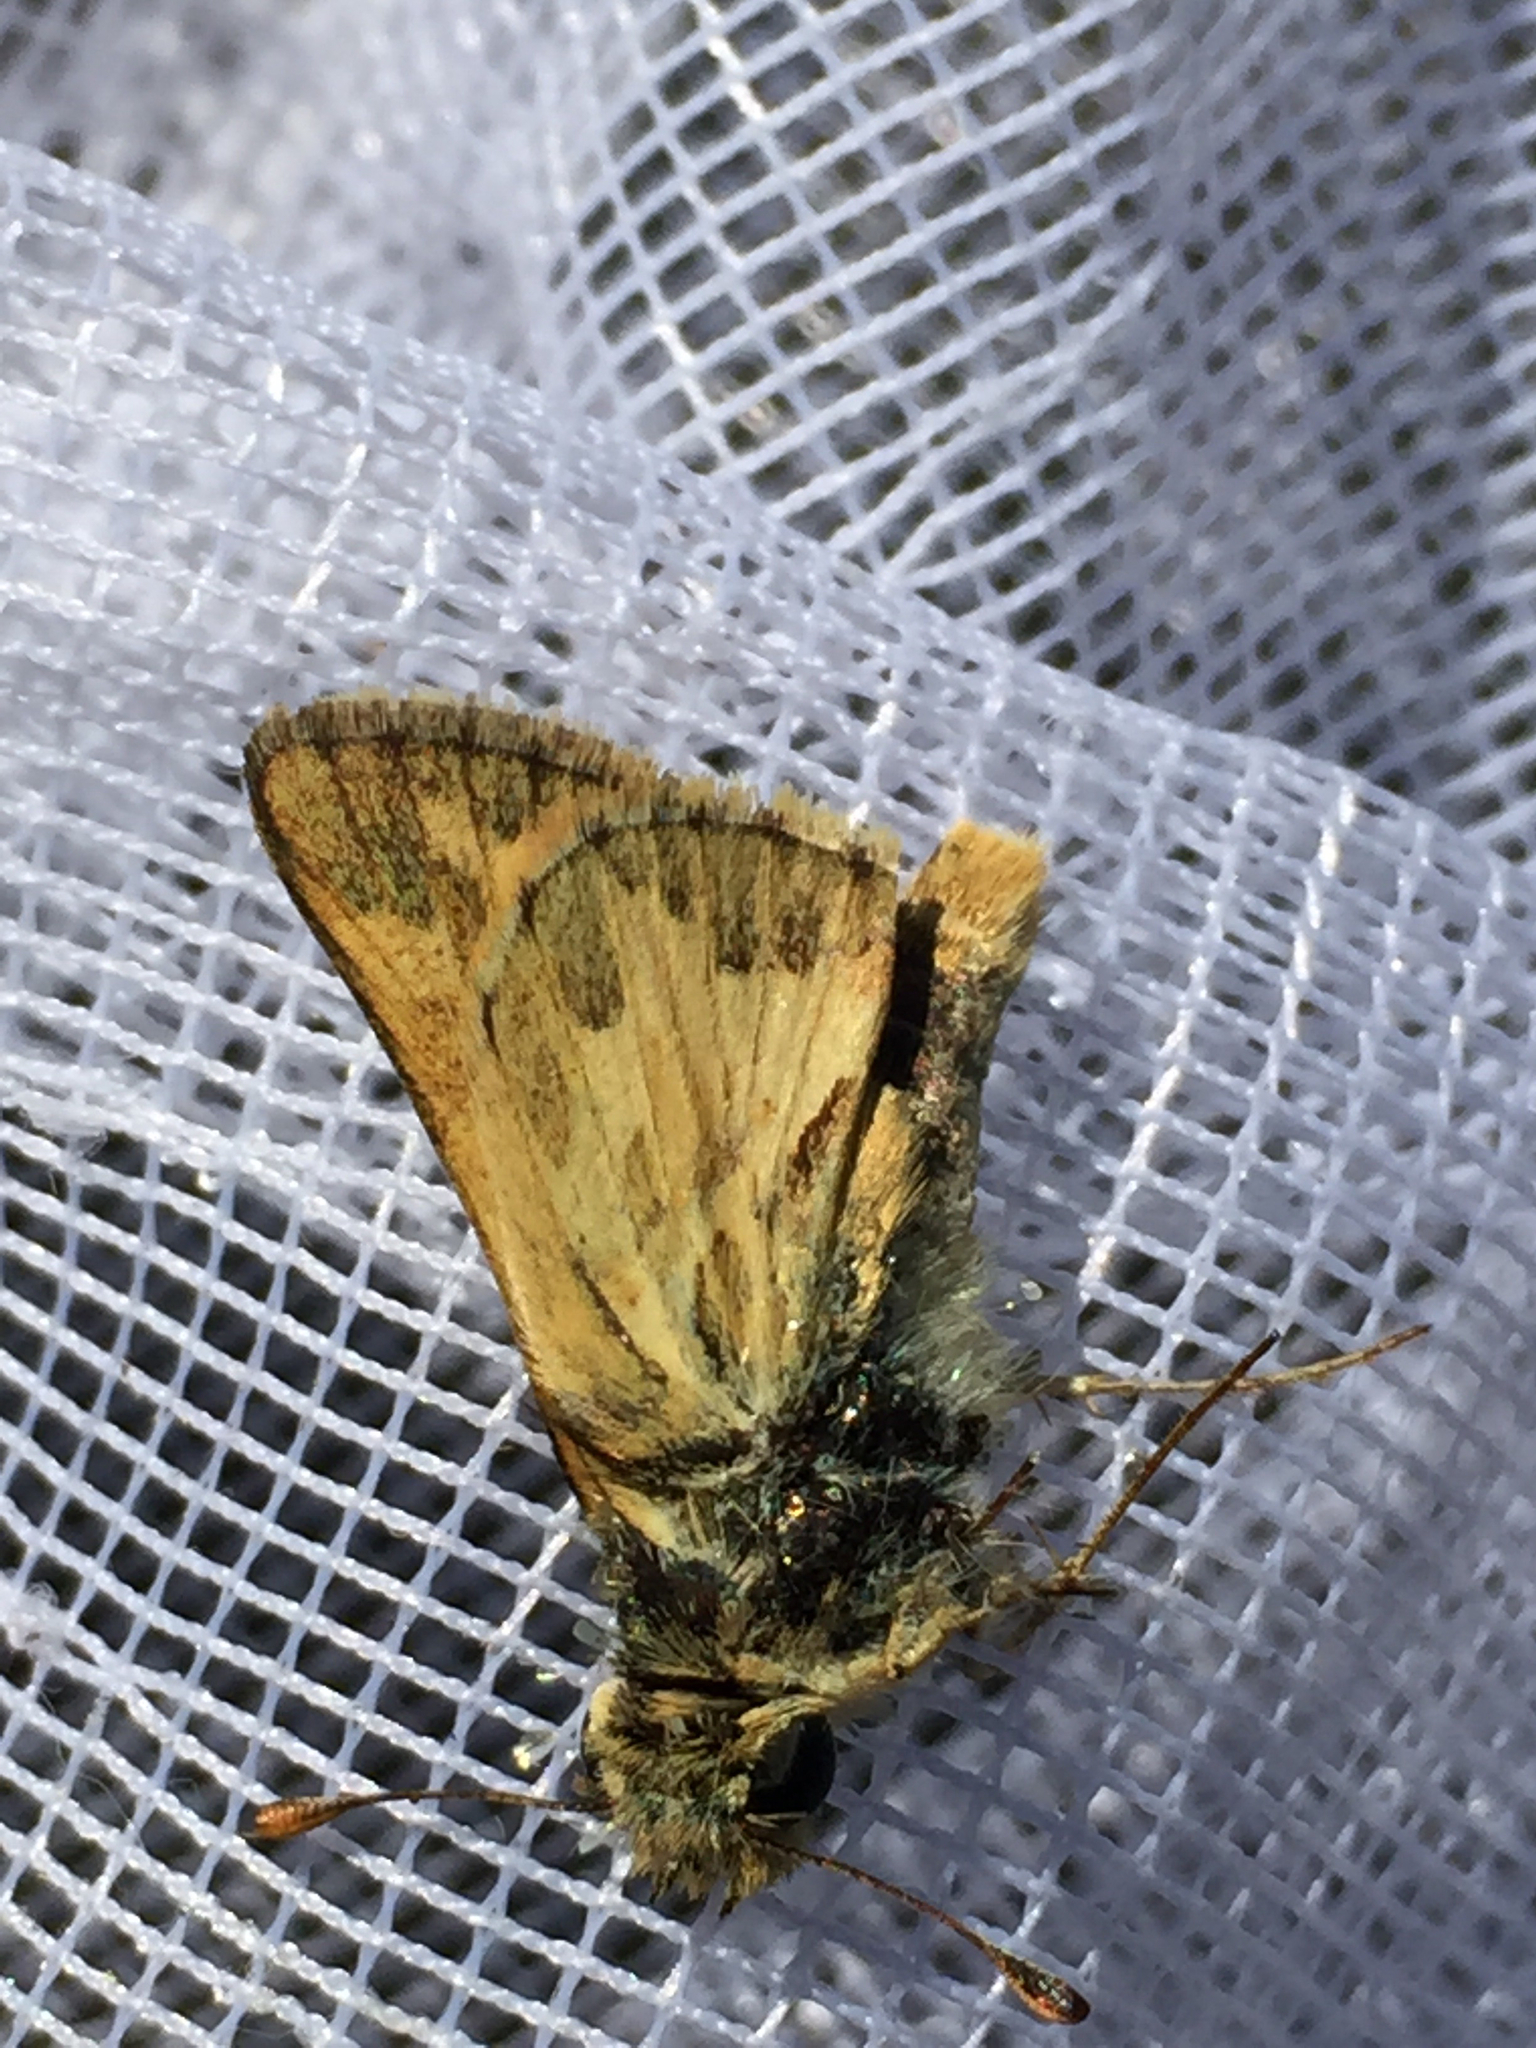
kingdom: Animalia
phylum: Arthropoda
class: Insecta
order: Lepidoptera
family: Hesperiidae
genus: Polites
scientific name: Polites sabuleti
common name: Sandhill skipper
